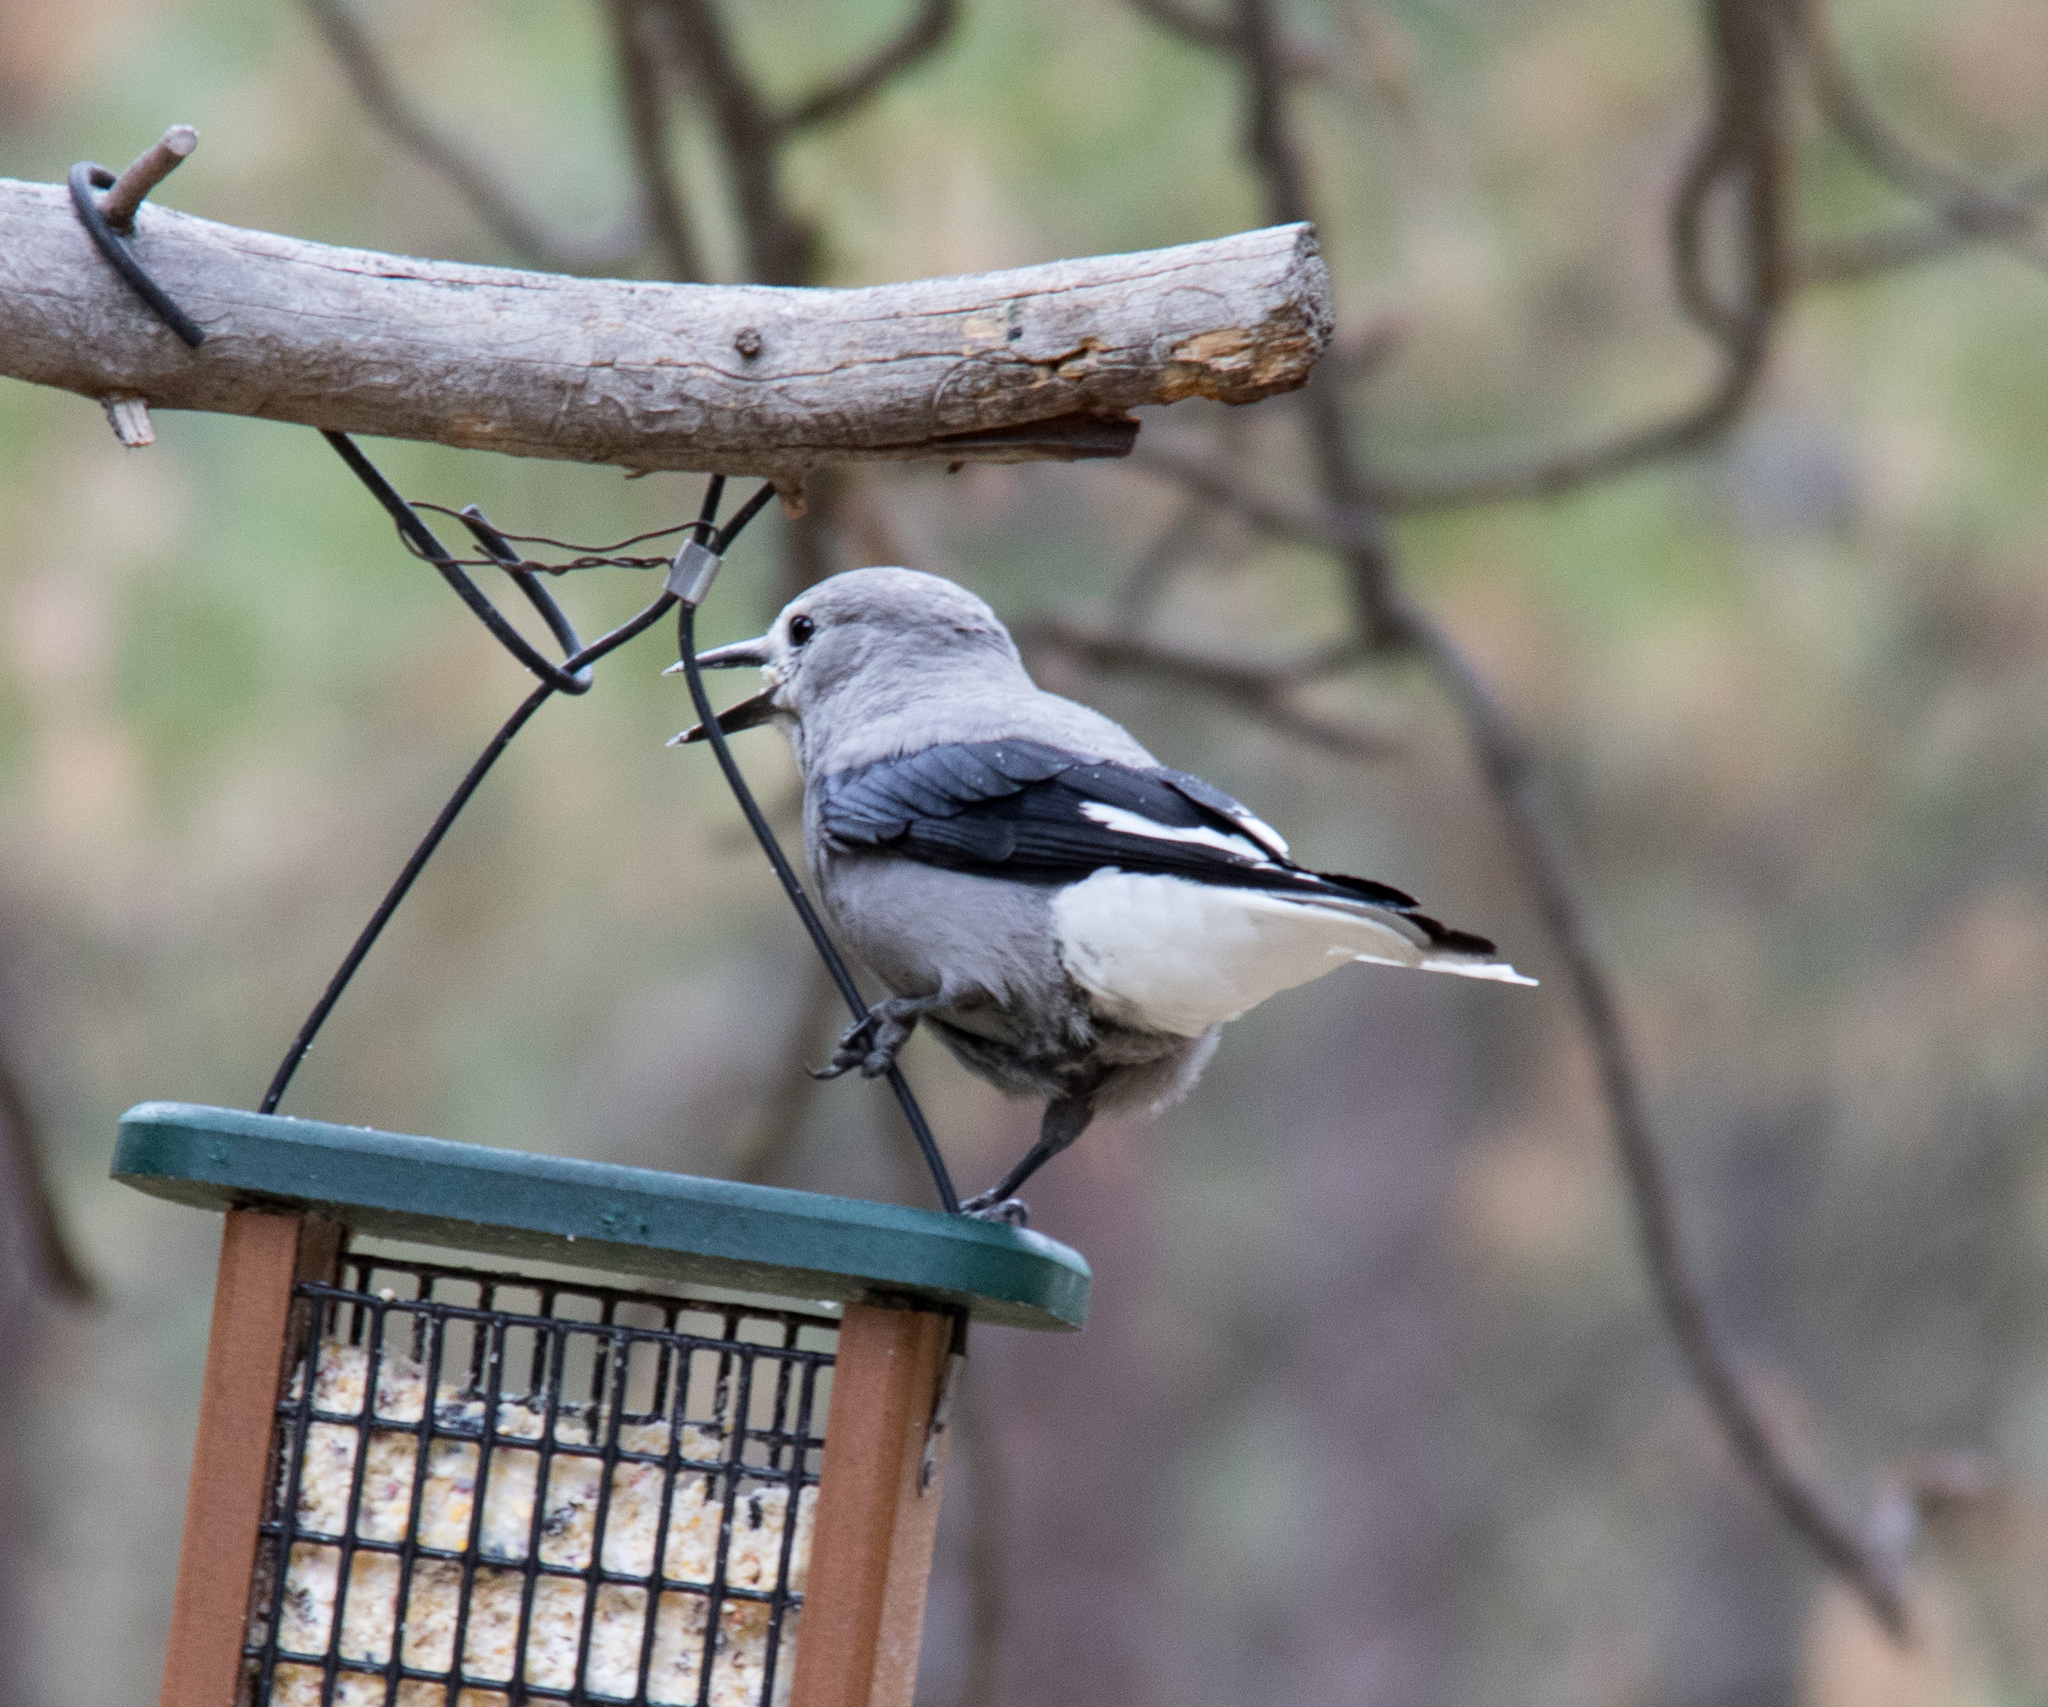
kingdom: Animalia
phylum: Chordata
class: Aves
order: Passeriformes
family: Corvidae
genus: Nucifraga
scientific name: Nucifraga columbiana
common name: Clark's nutcracker
